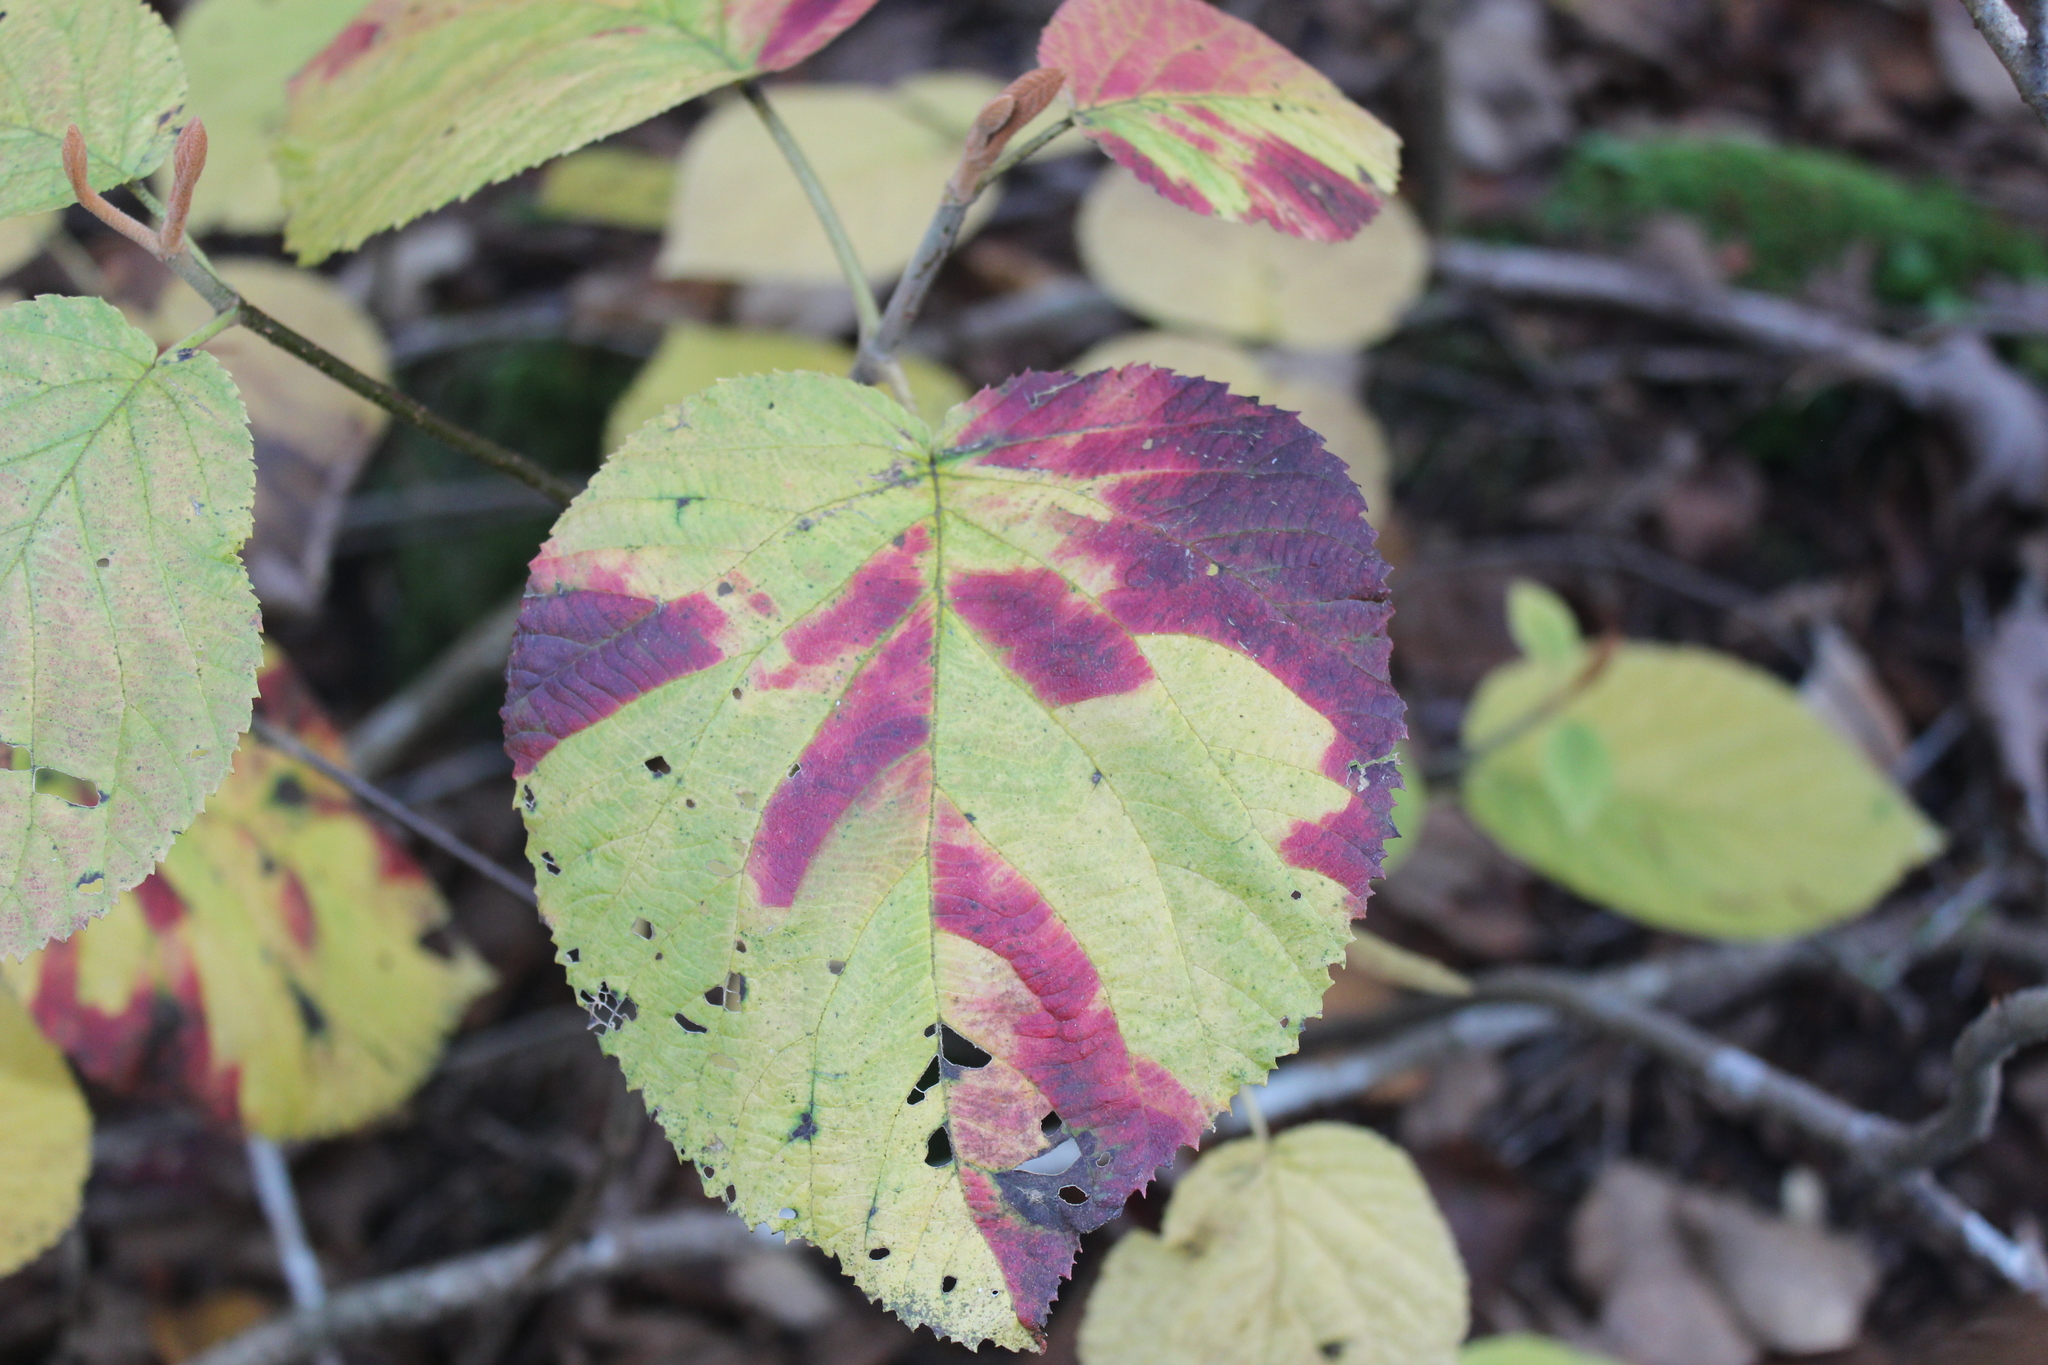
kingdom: Plantae
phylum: Tracheophyta
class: Magnoliopsida
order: Dipsacales
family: Viburnaceae
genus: Viburnum
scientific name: Viburnum lantanoides
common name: Hobblebush
